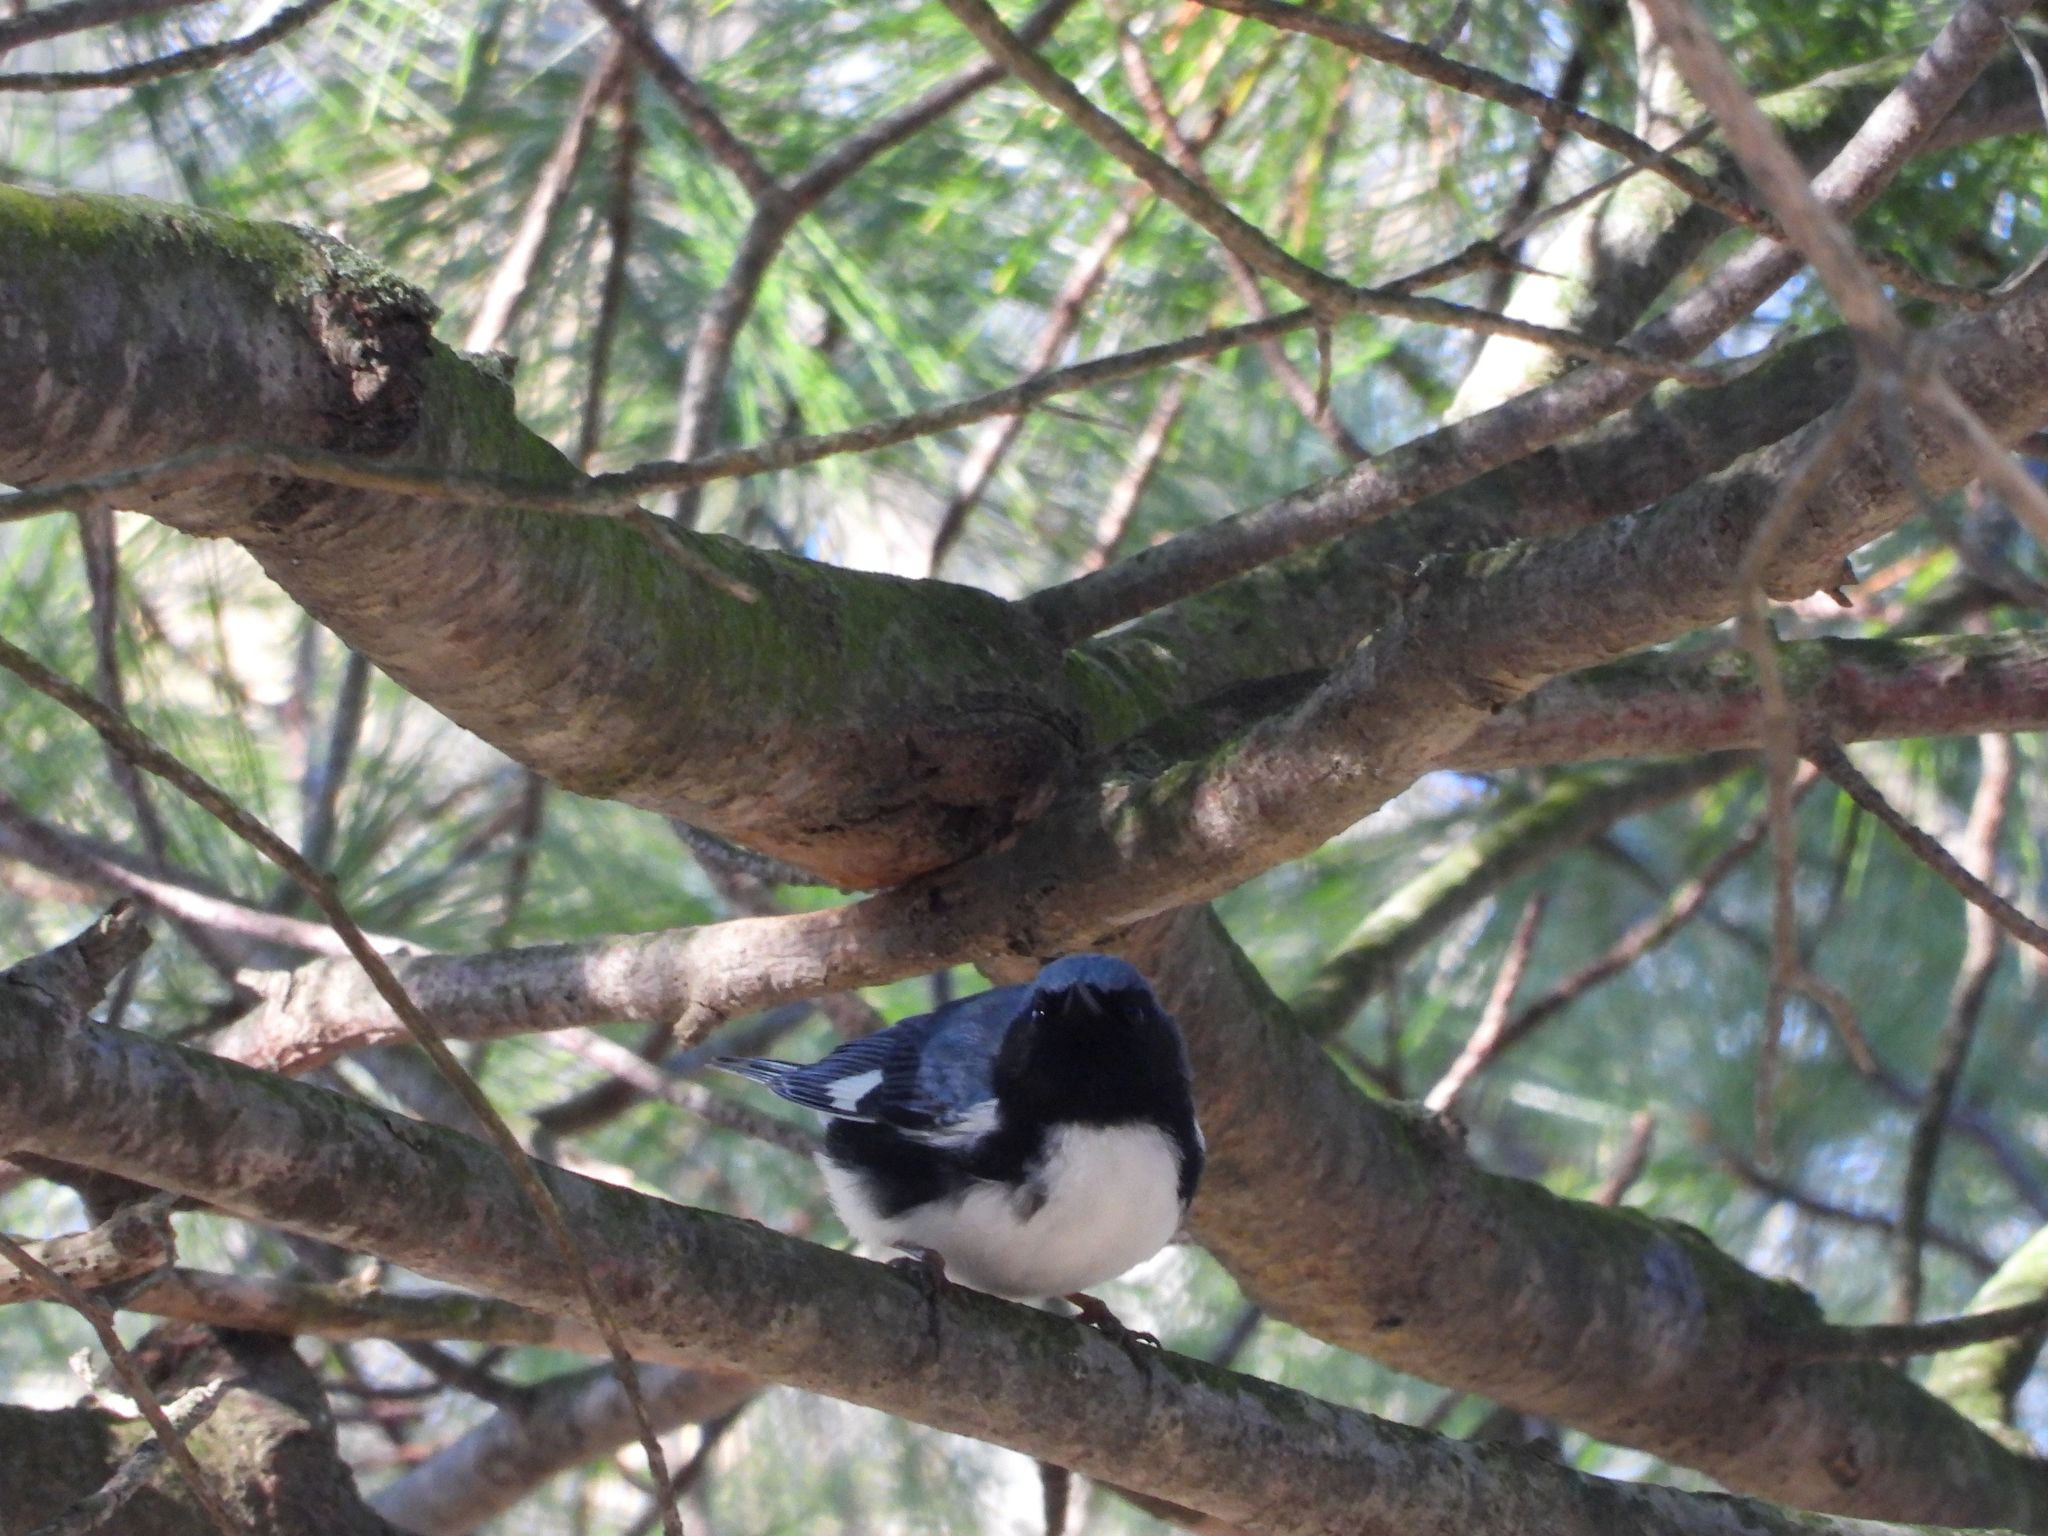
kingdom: Animalia
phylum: Chordata
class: Aves
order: Passeriformes
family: Parulidae
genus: Setophaga
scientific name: Setophaga caerulescens
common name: Black-throated blue warbler
